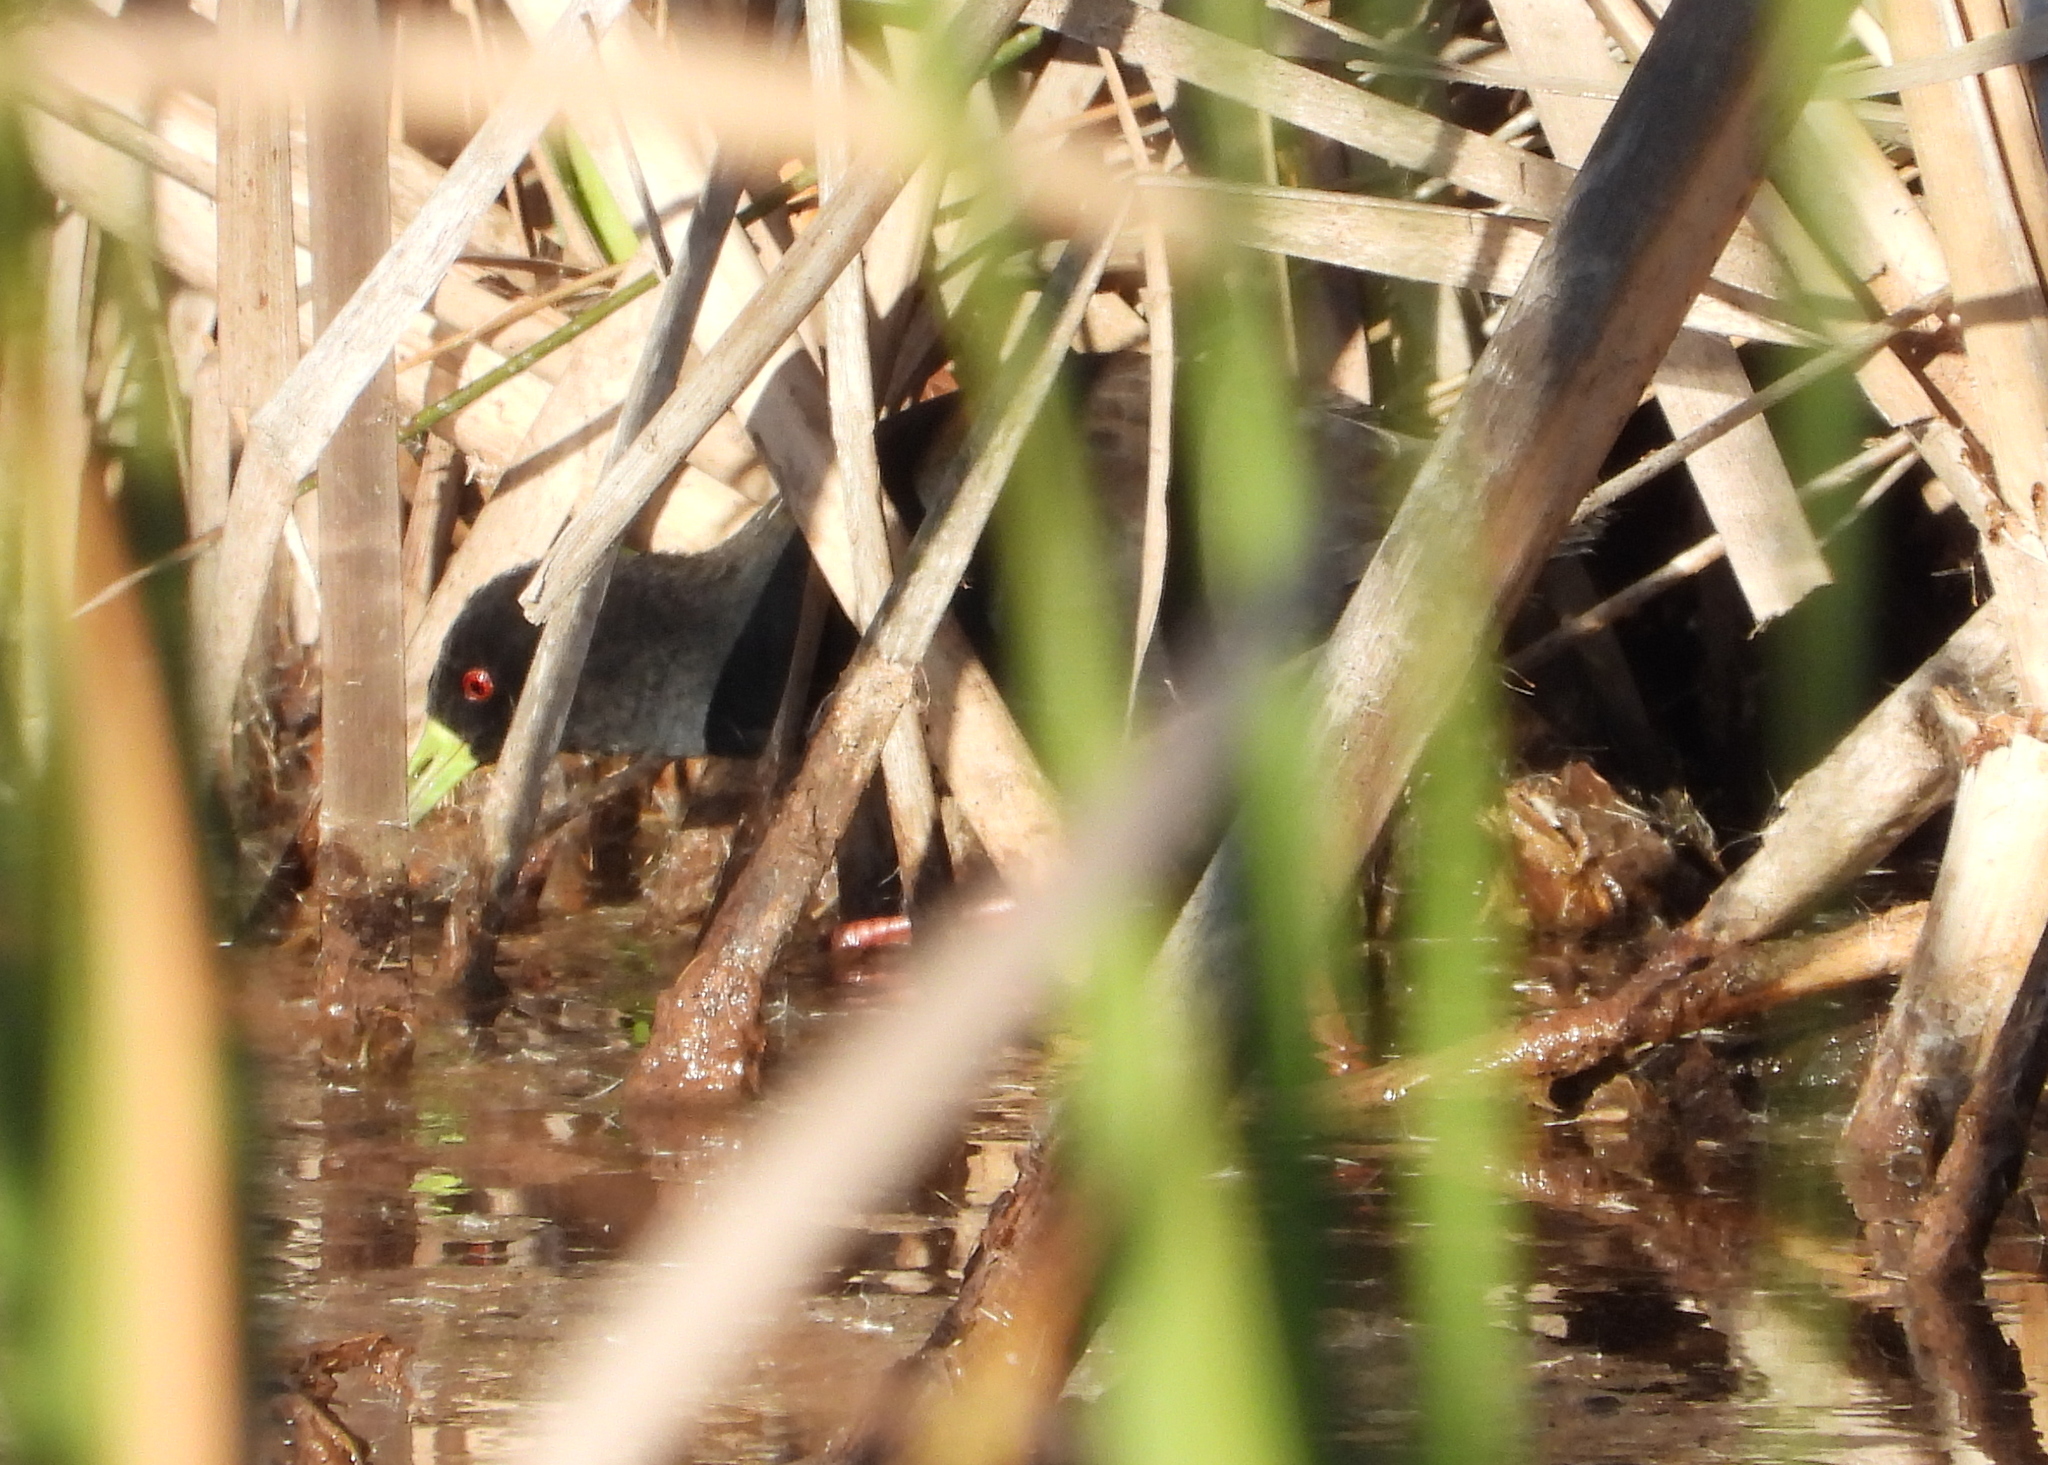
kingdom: Animalia
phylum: Chordata
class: Aves
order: Gruiformes
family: Rallidae
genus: Amaurornis
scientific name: Amaurornis flavirostra
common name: Black crake
